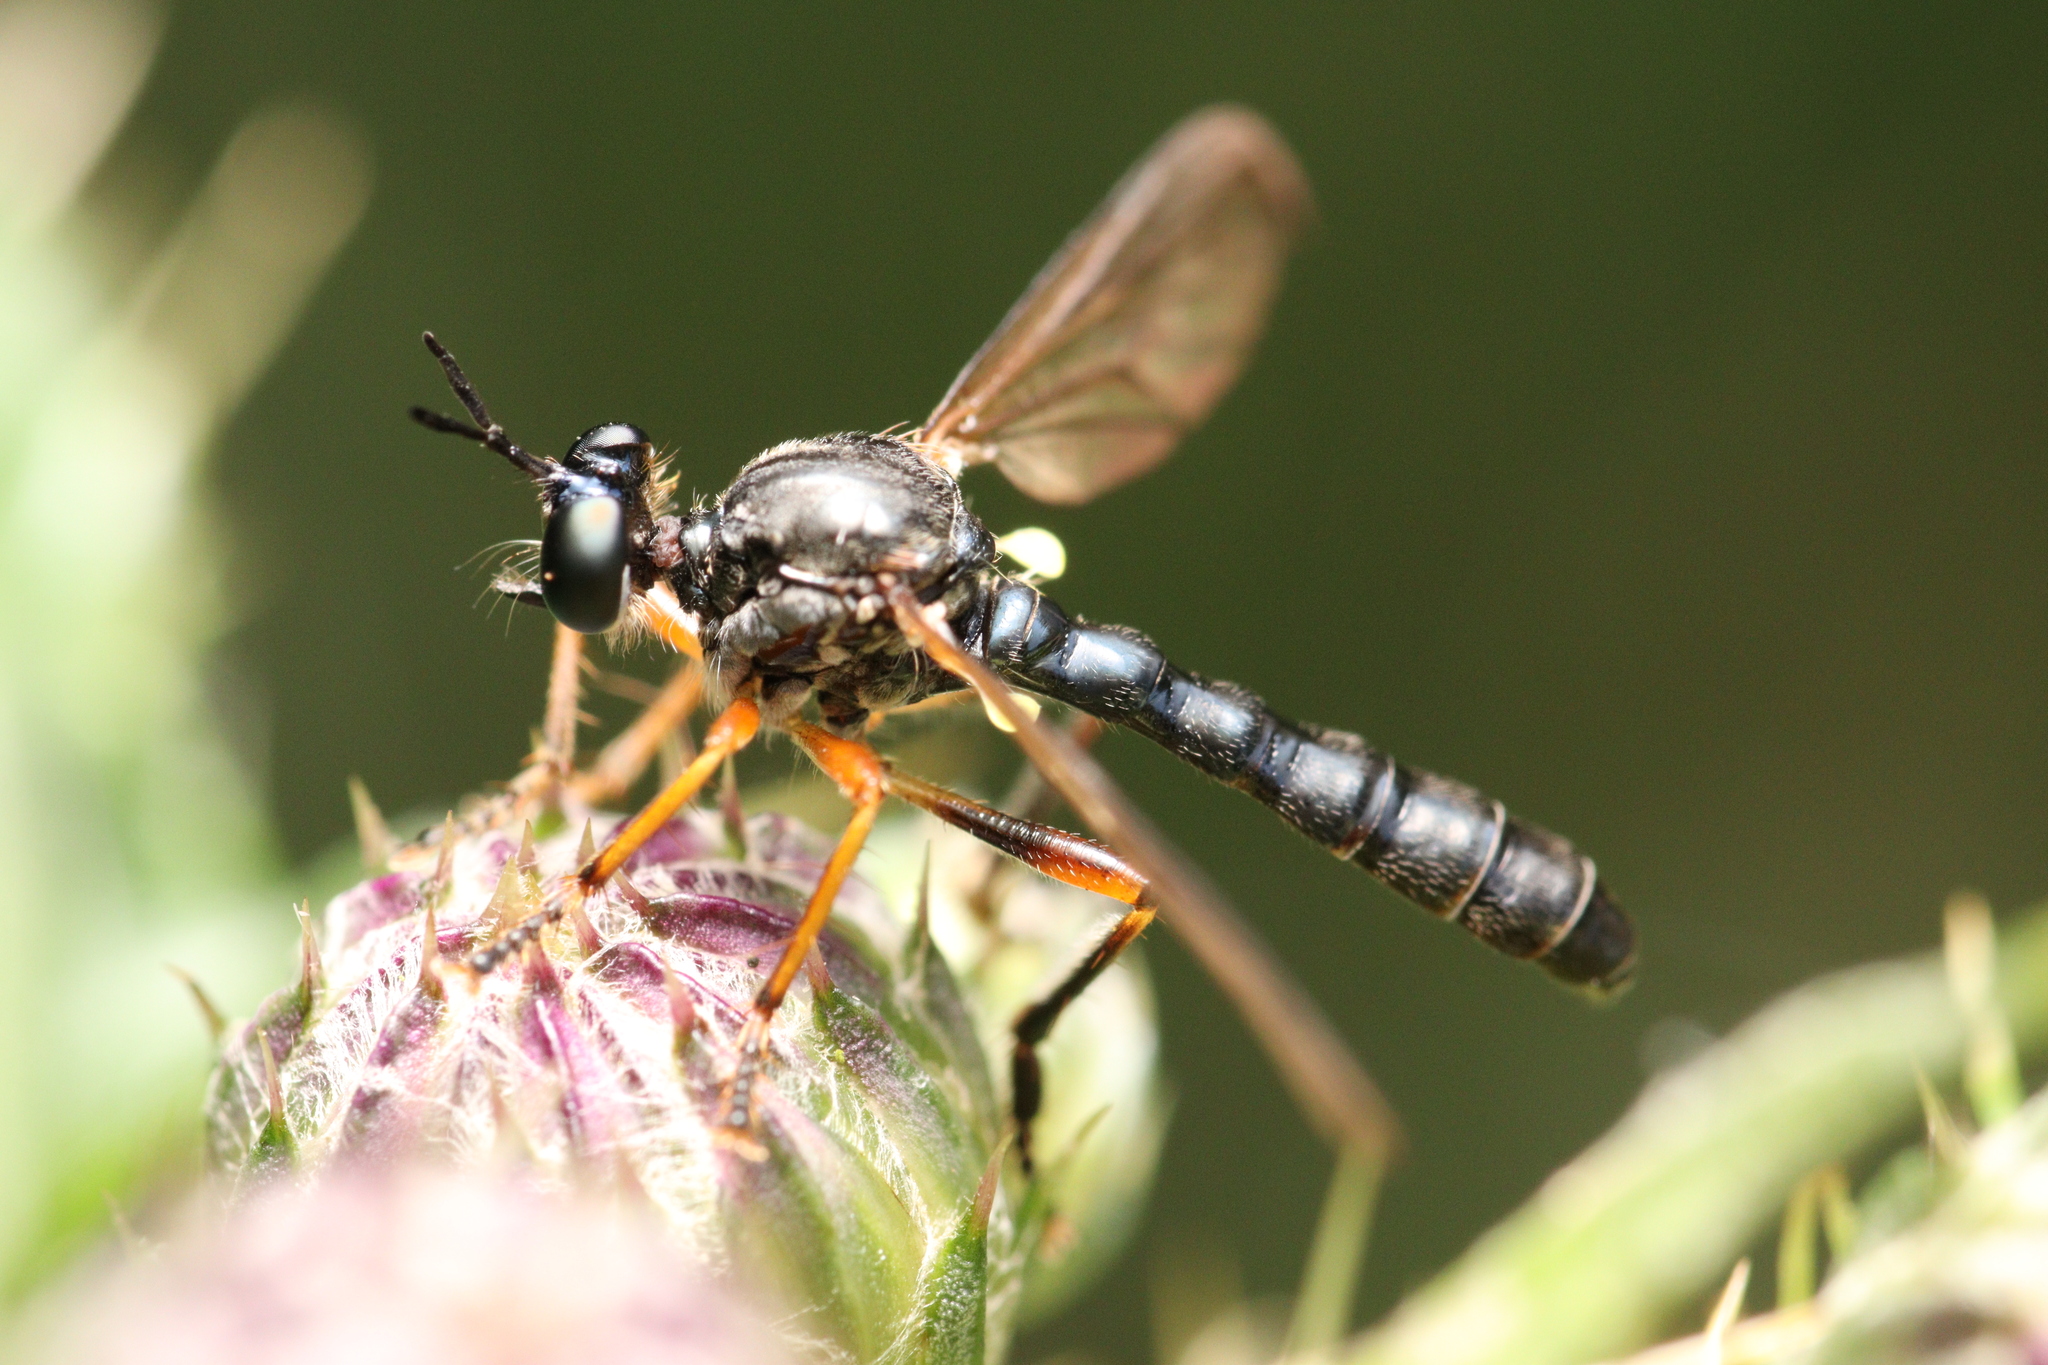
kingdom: Animalia
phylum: Arthropoda
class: Insecta
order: Diptera
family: Asilidae
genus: Dioctria
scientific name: Dioctria hyalipennis
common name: Stripe-legged robberfly
